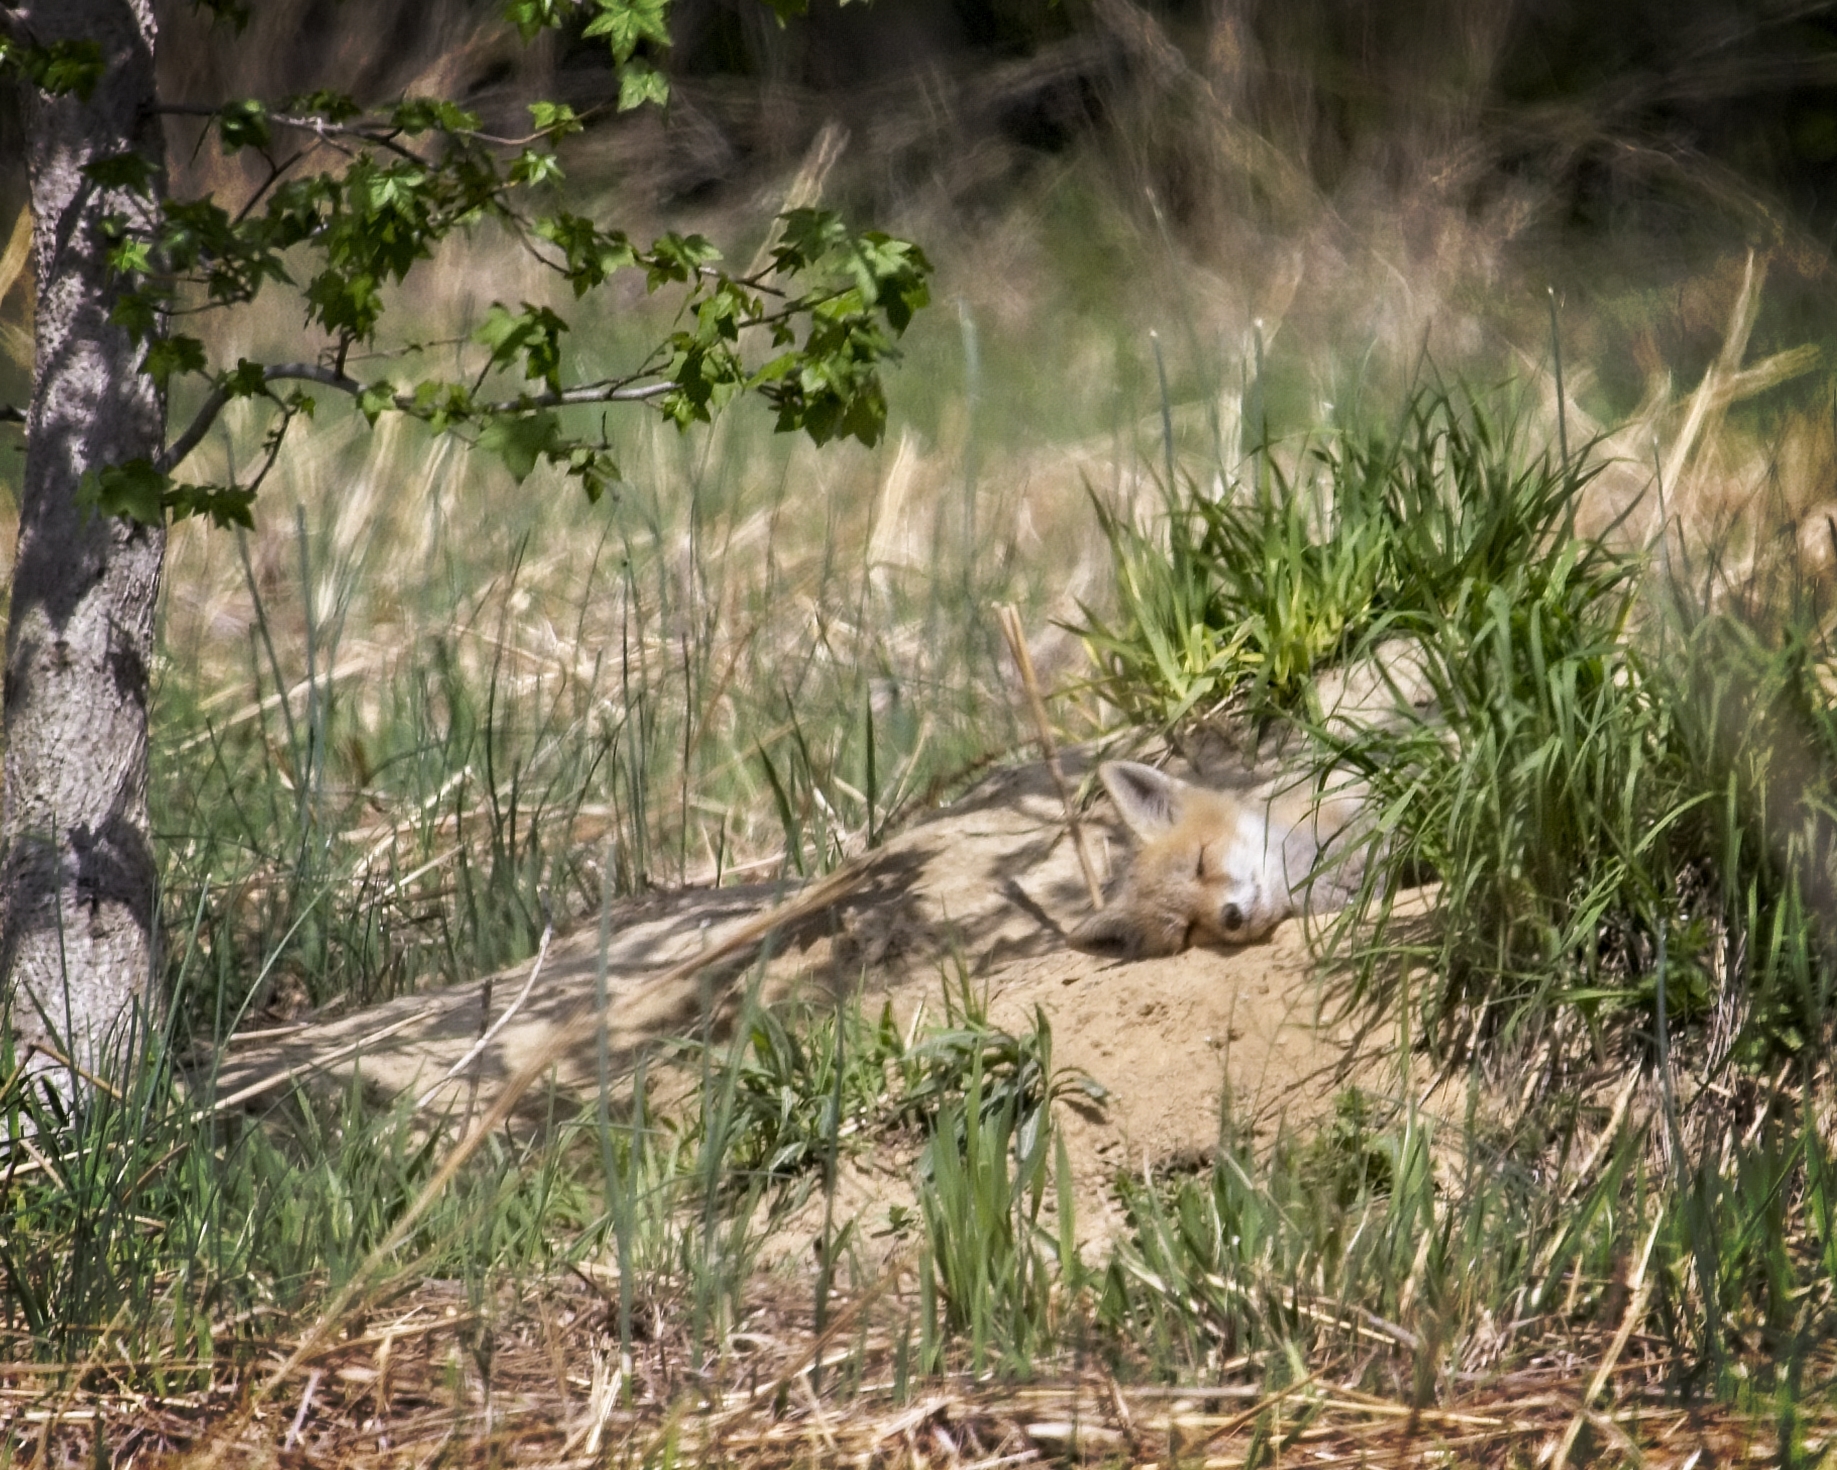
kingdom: Animalia
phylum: Chordata
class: Mammalia
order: Carnivora
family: Canidae
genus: Vulpes
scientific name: Vulpes vulpes
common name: Red fox
